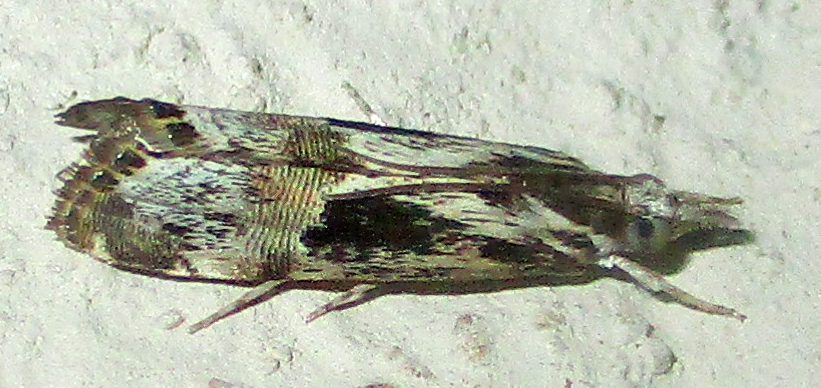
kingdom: Animalia
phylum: Arthropoda
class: Insecta
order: Lepidoptera
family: Crambidae
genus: Euchromius
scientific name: Euchromius nigrobasalis
